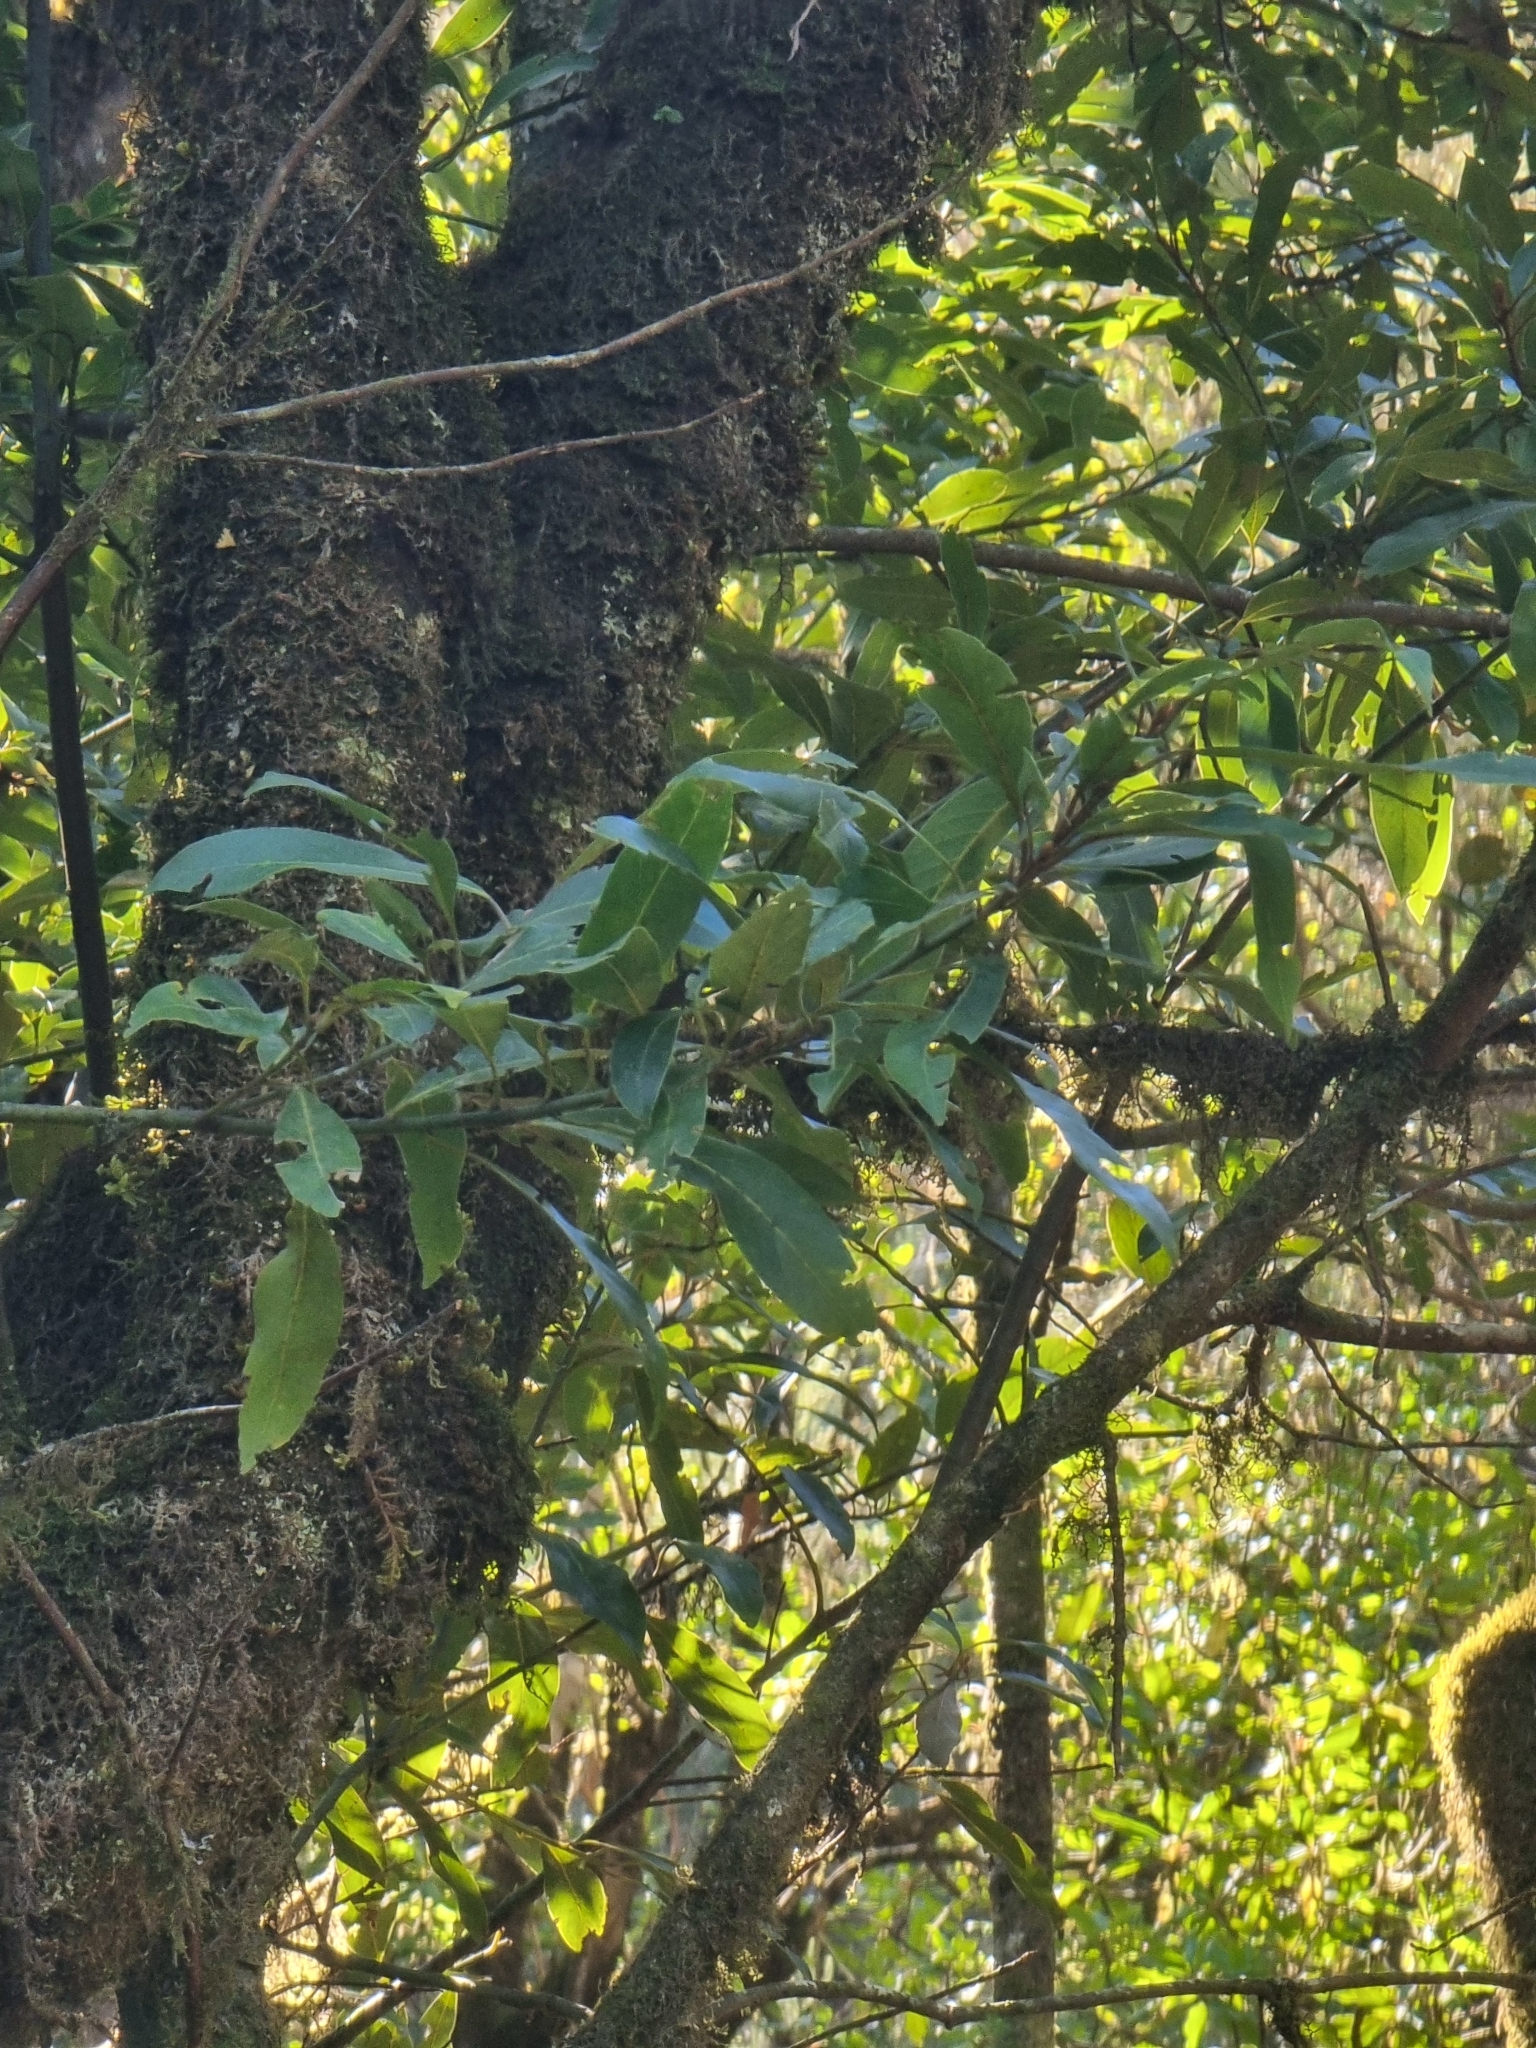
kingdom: Plantae
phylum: Tracheophyta
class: Magnoliopsida
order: Laurales
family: Lauraceae
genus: Laurus
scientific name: Laurus novocanariensis
